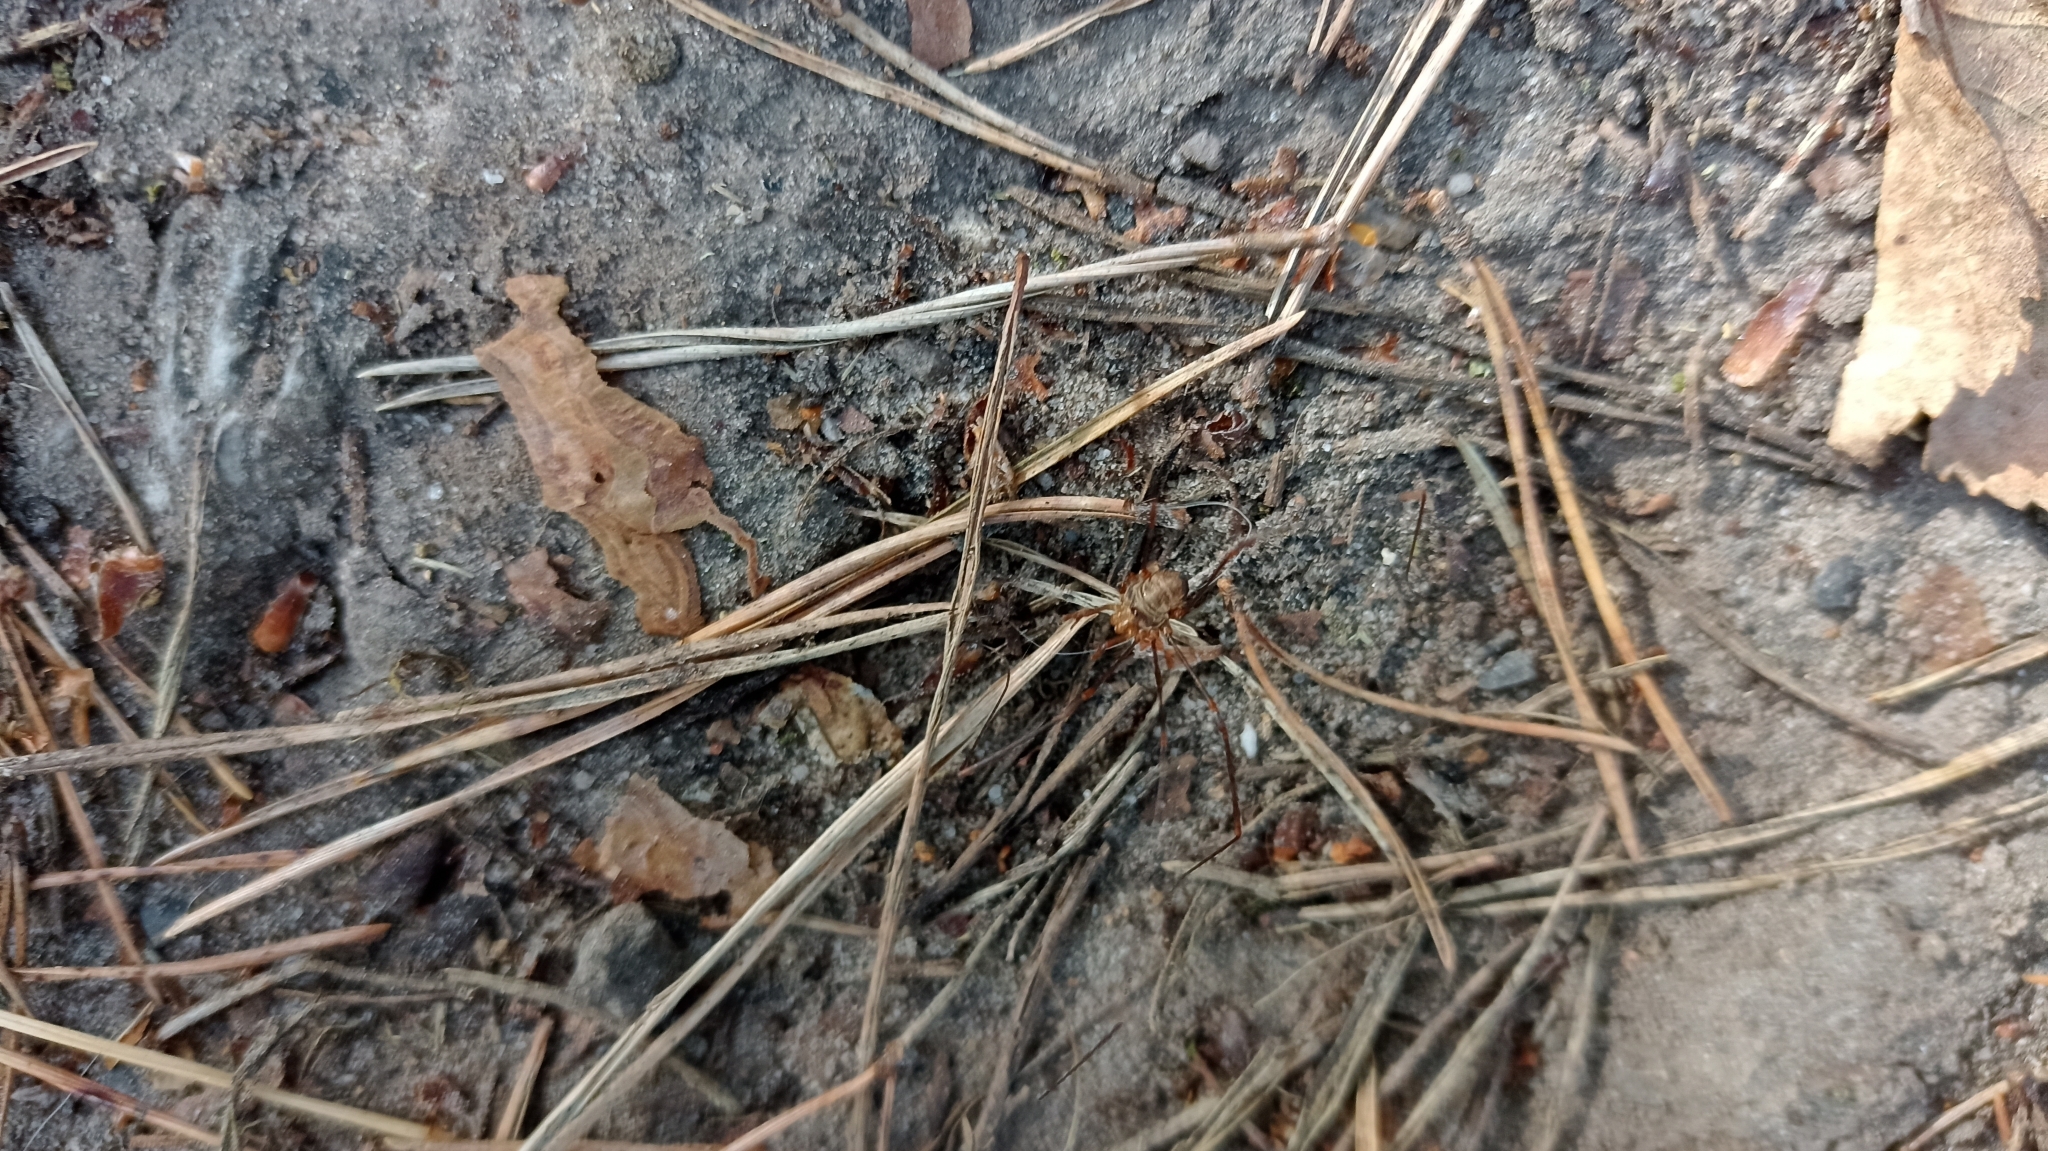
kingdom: Animalia
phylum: Arthropoda
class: Arachnida
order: Opiliones
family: Phalangiidae
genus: Dicranopalpus
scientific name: Dicranopalpus ramosus
